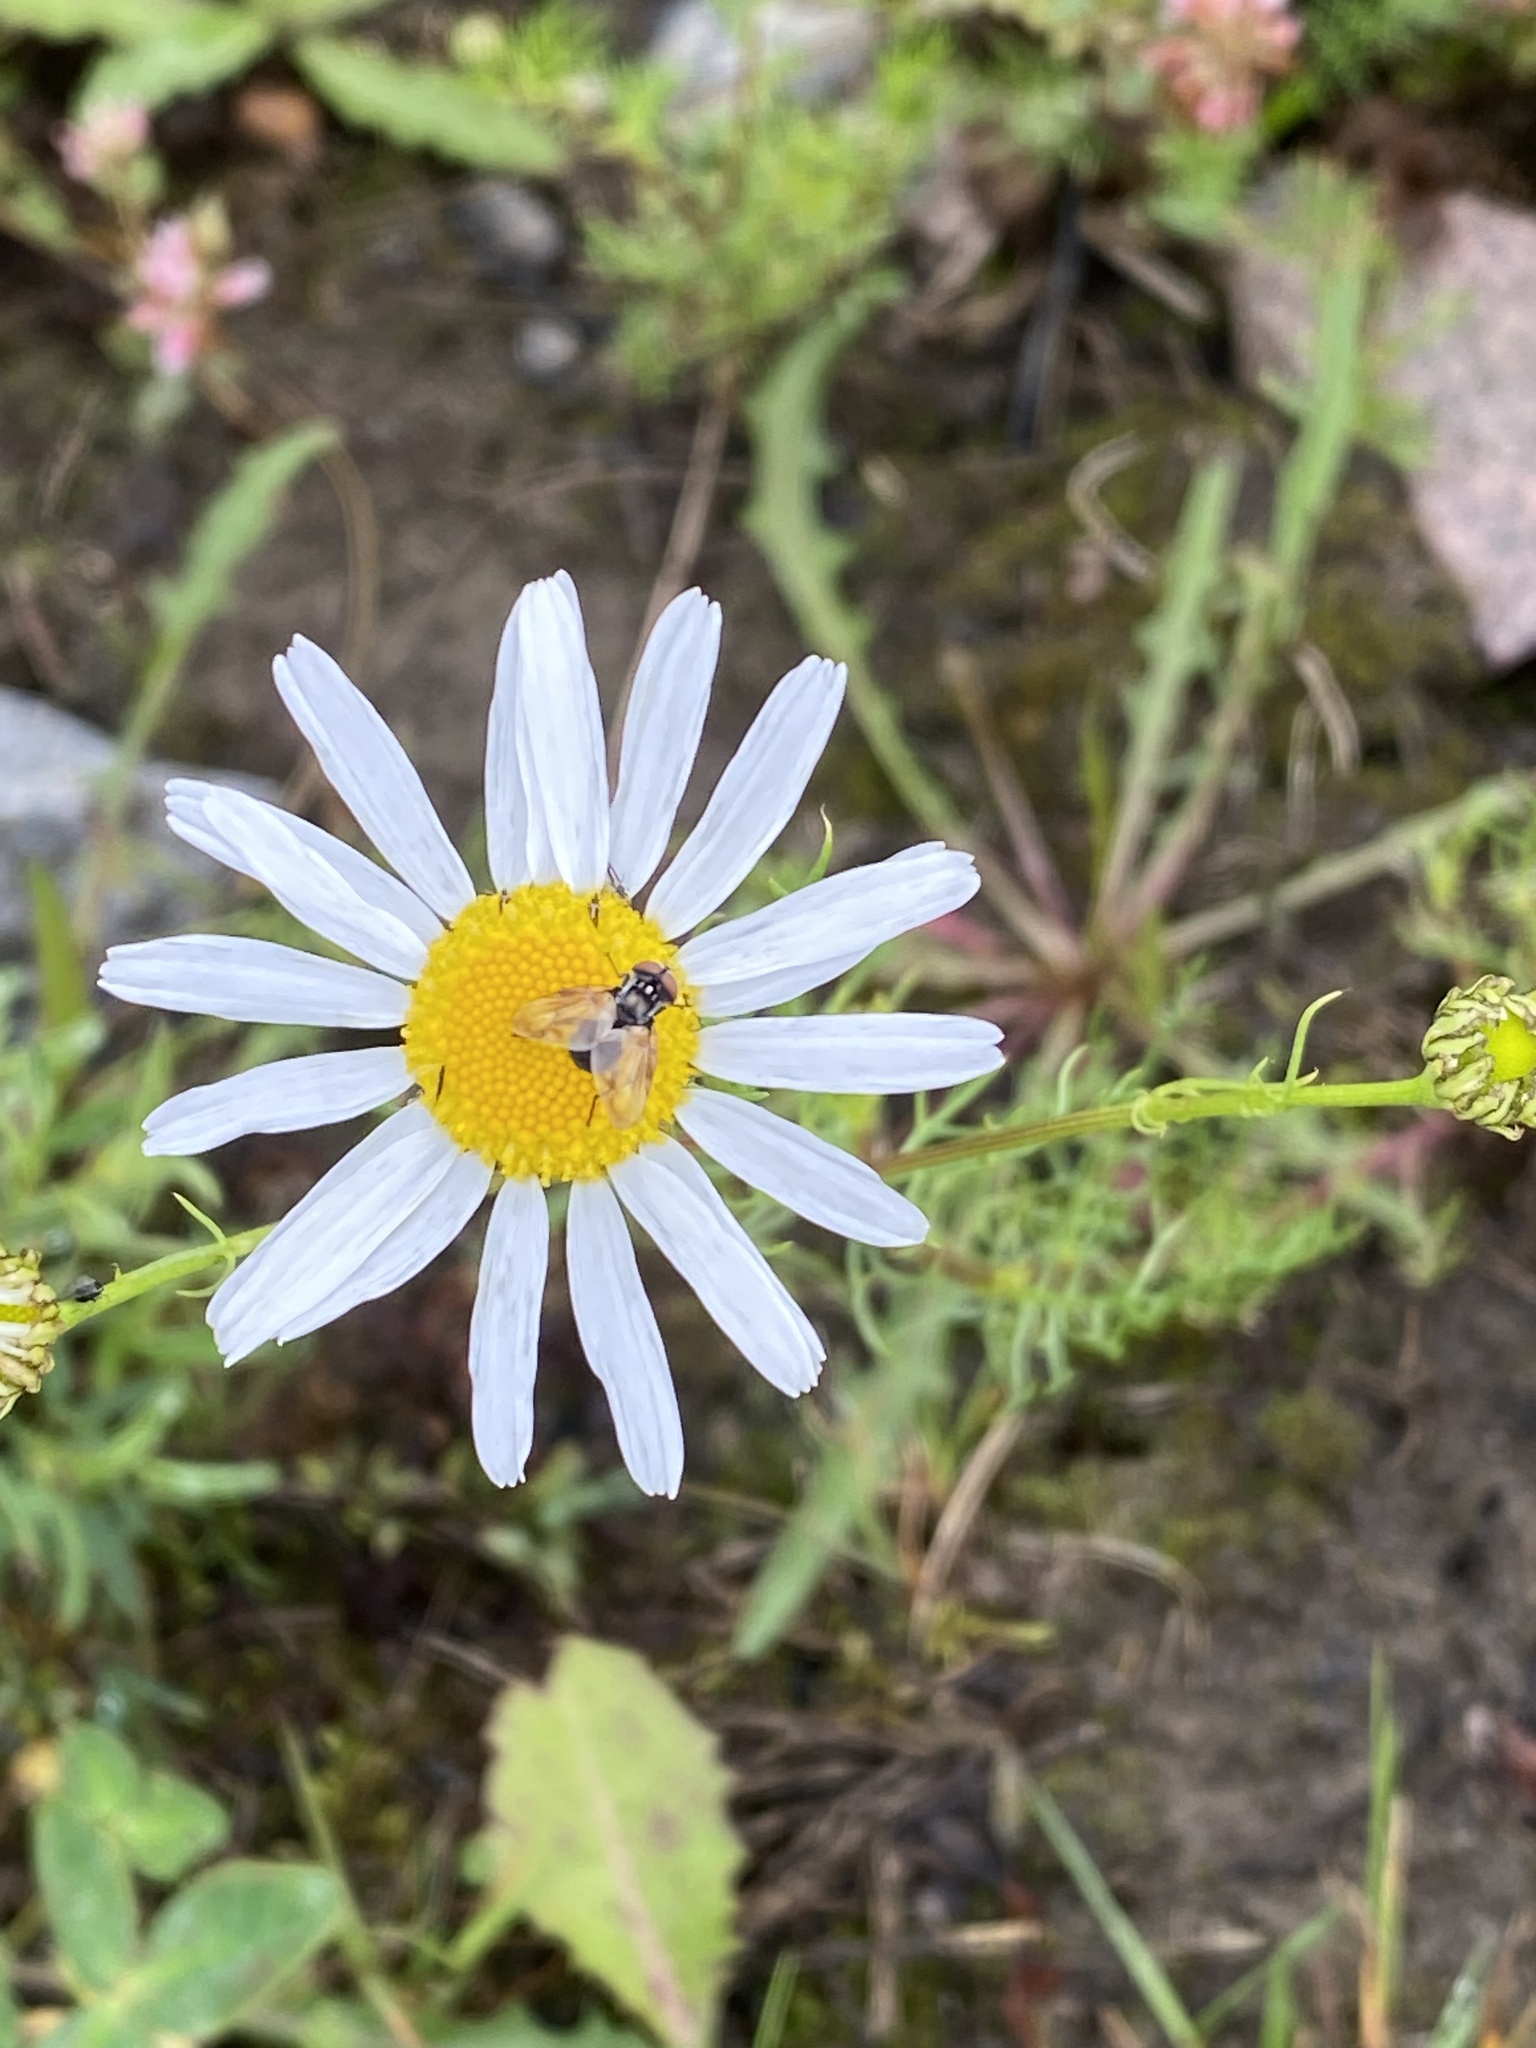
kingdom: Animalia
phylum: Arthropoda
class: Insecta
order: Diptera
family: Tachinidae
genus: Phasia
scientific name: Phasia obesa
